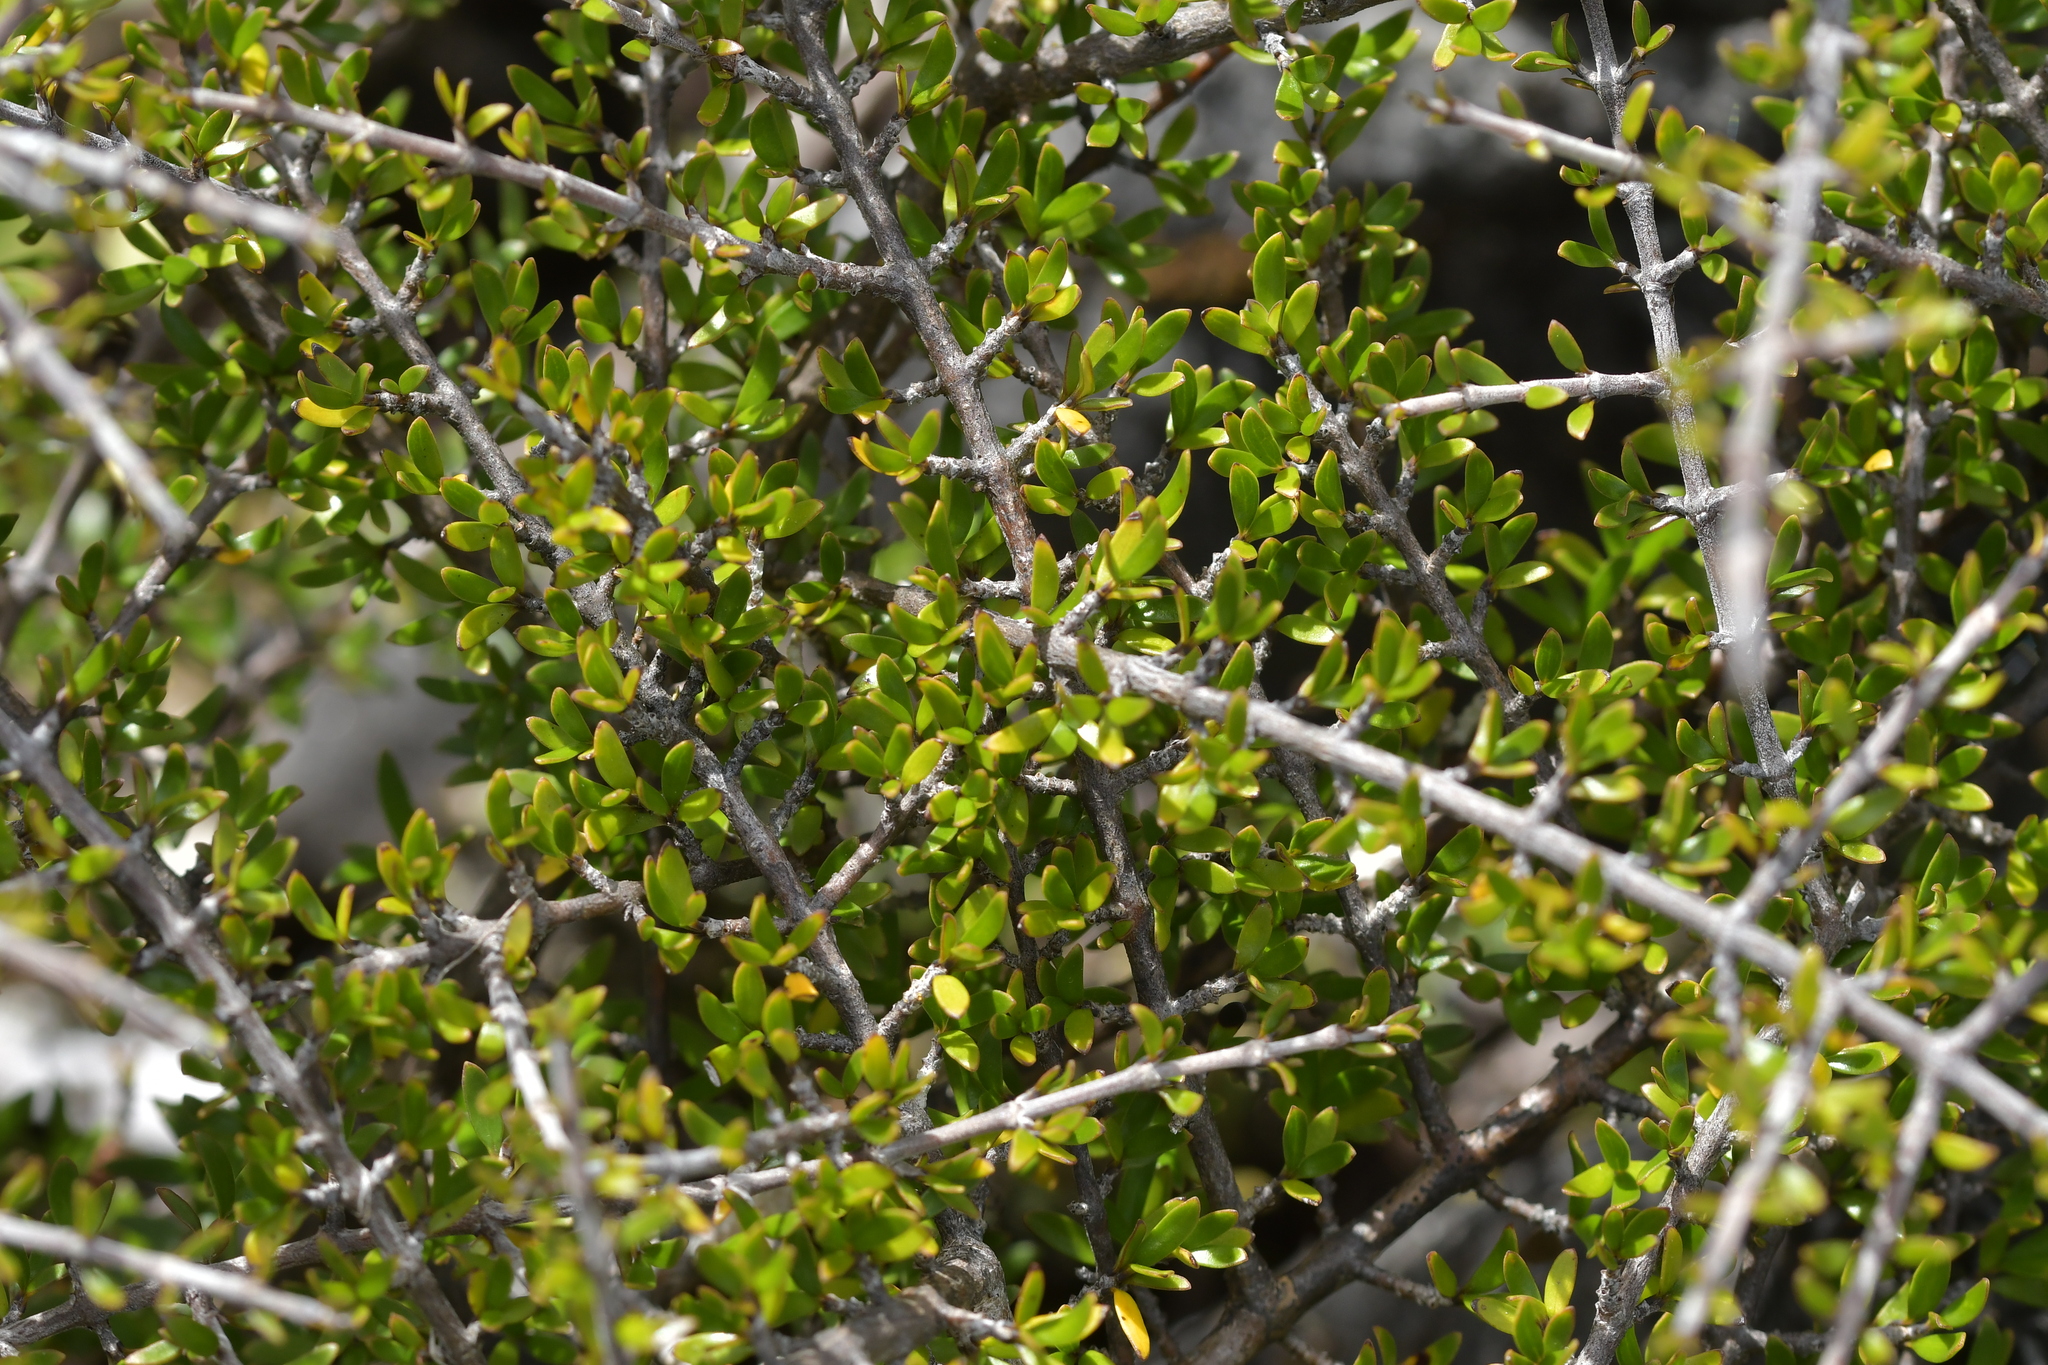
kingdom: Plantae
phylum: Tracheophyta
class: Magnoliopsida
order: Gentianales
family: Rubiaceae
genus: Coprosma
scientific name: Coprosma propinqua
